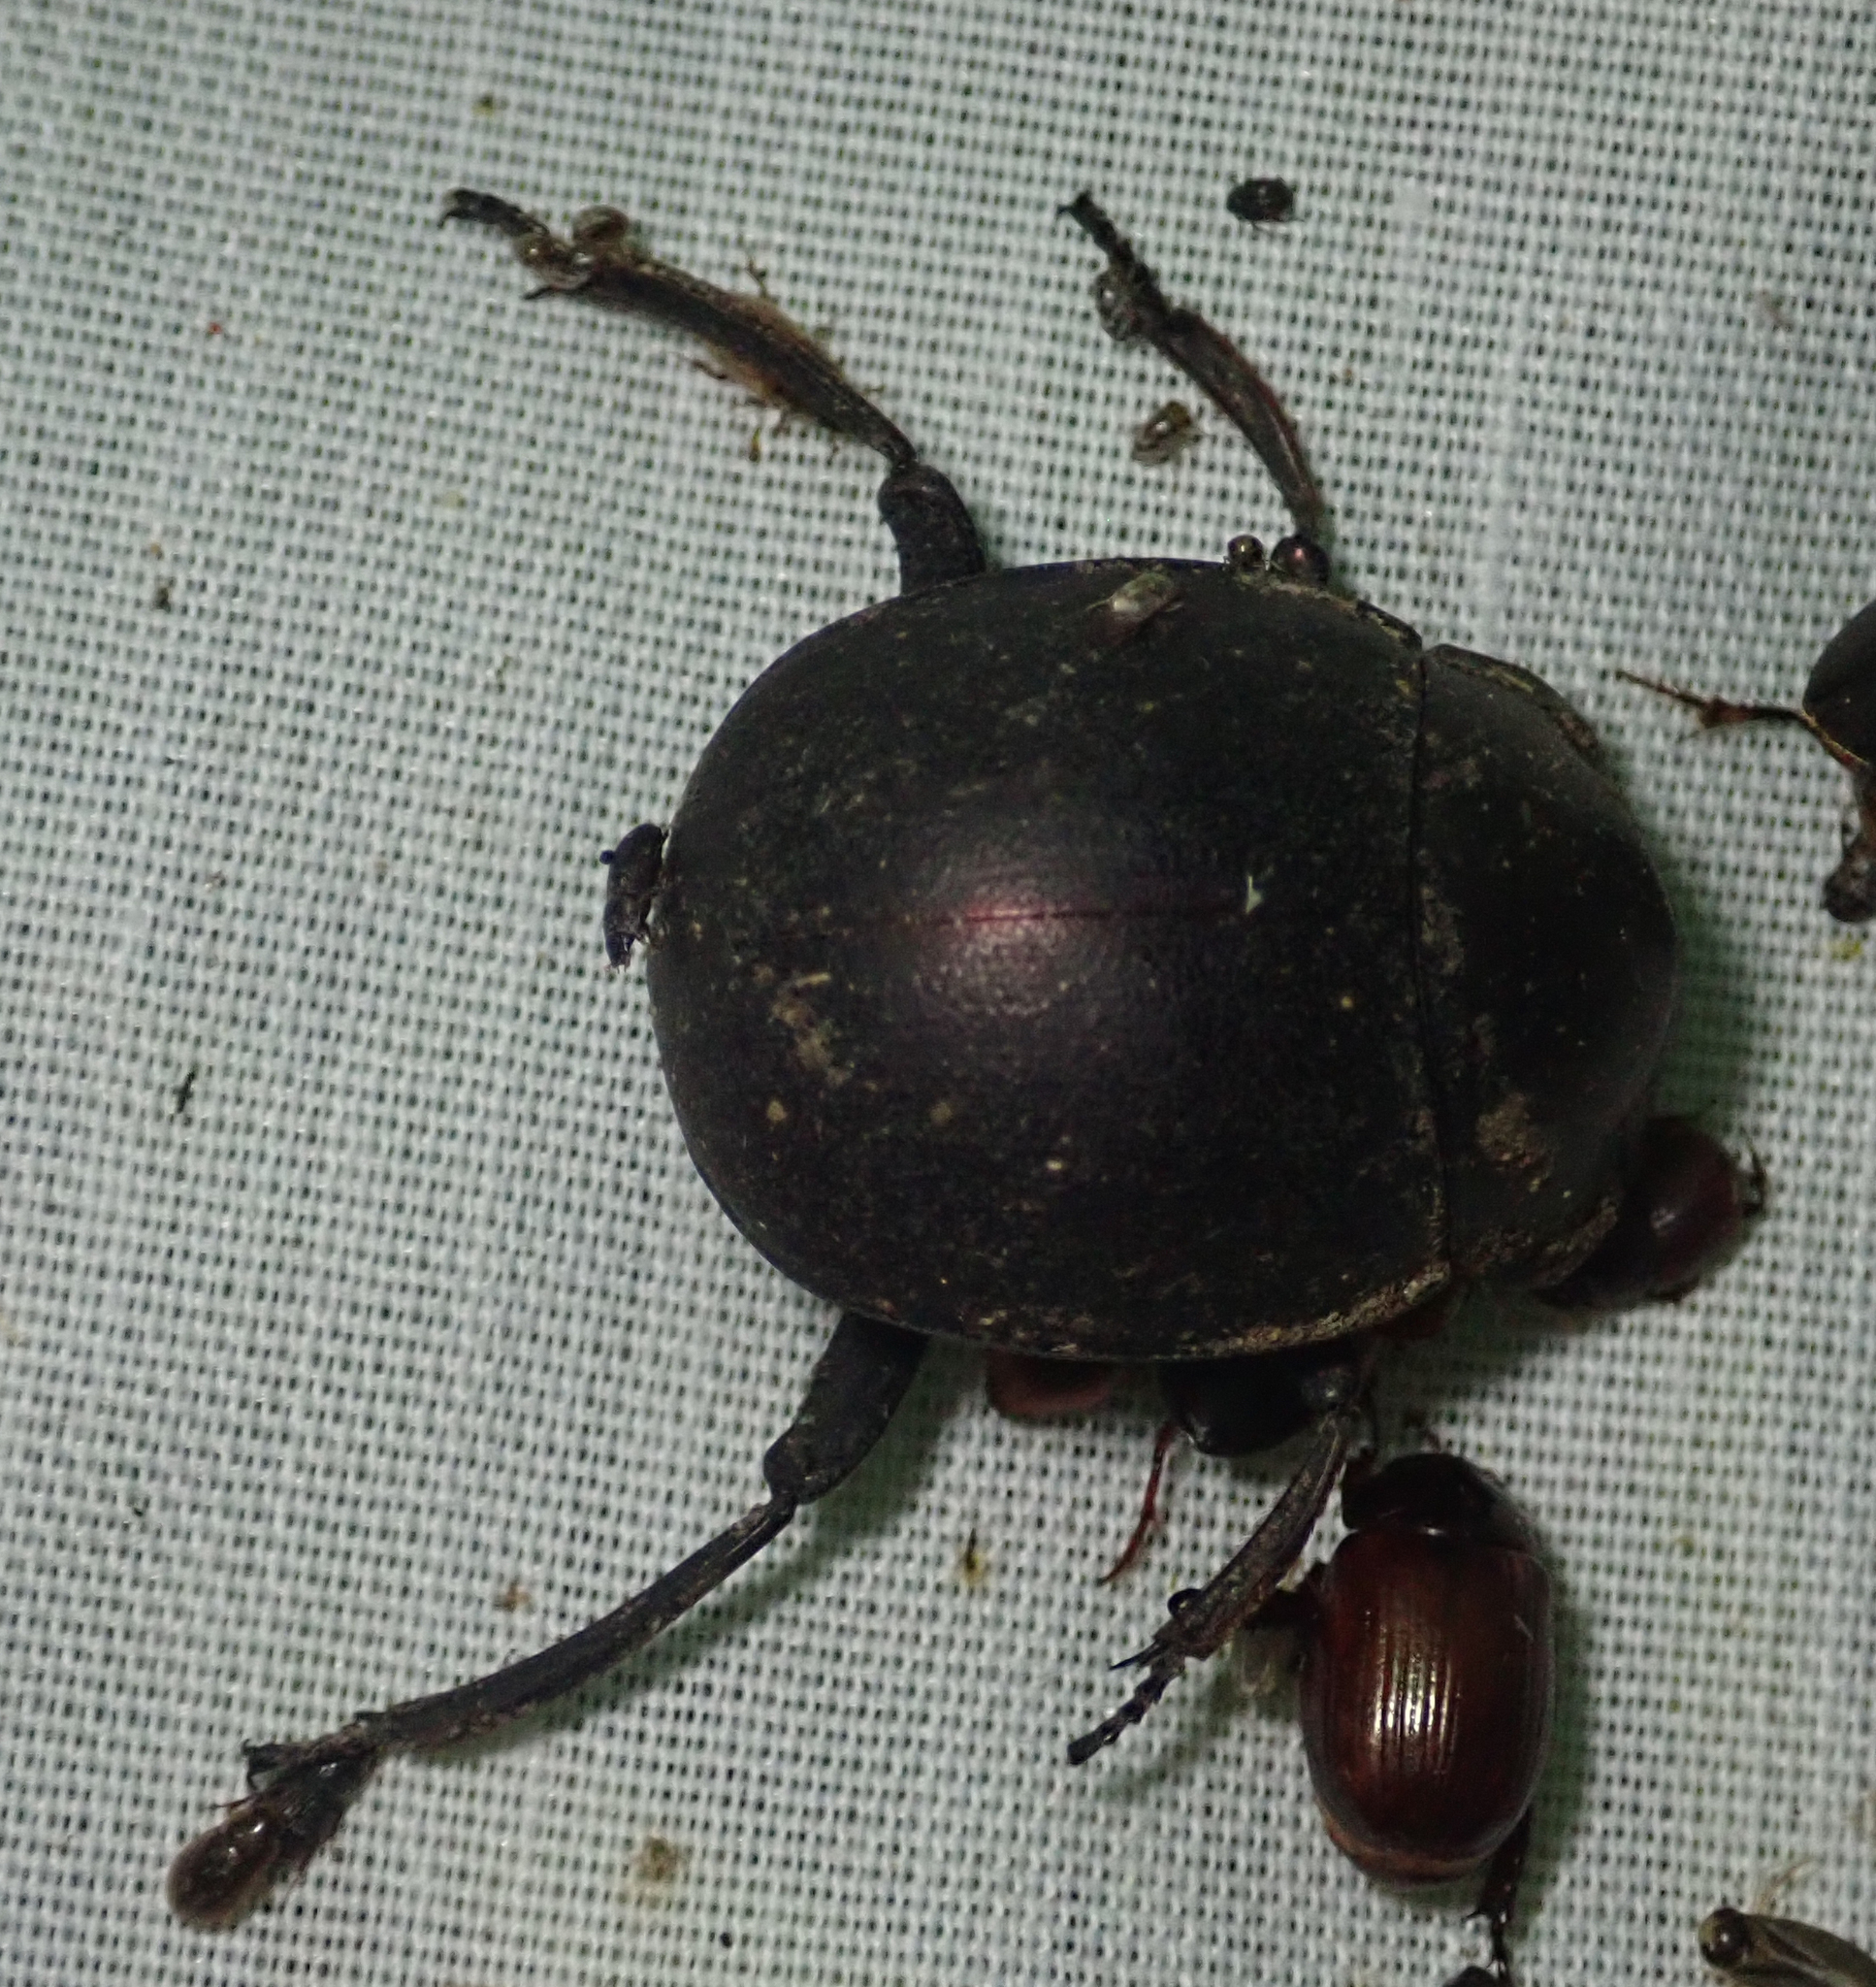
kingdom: Animalia
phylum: Arthropoda
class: Insecta
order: Coleoptera
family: Scarabaeidae
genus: Chalconotus
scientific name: Chalconotus convexus
